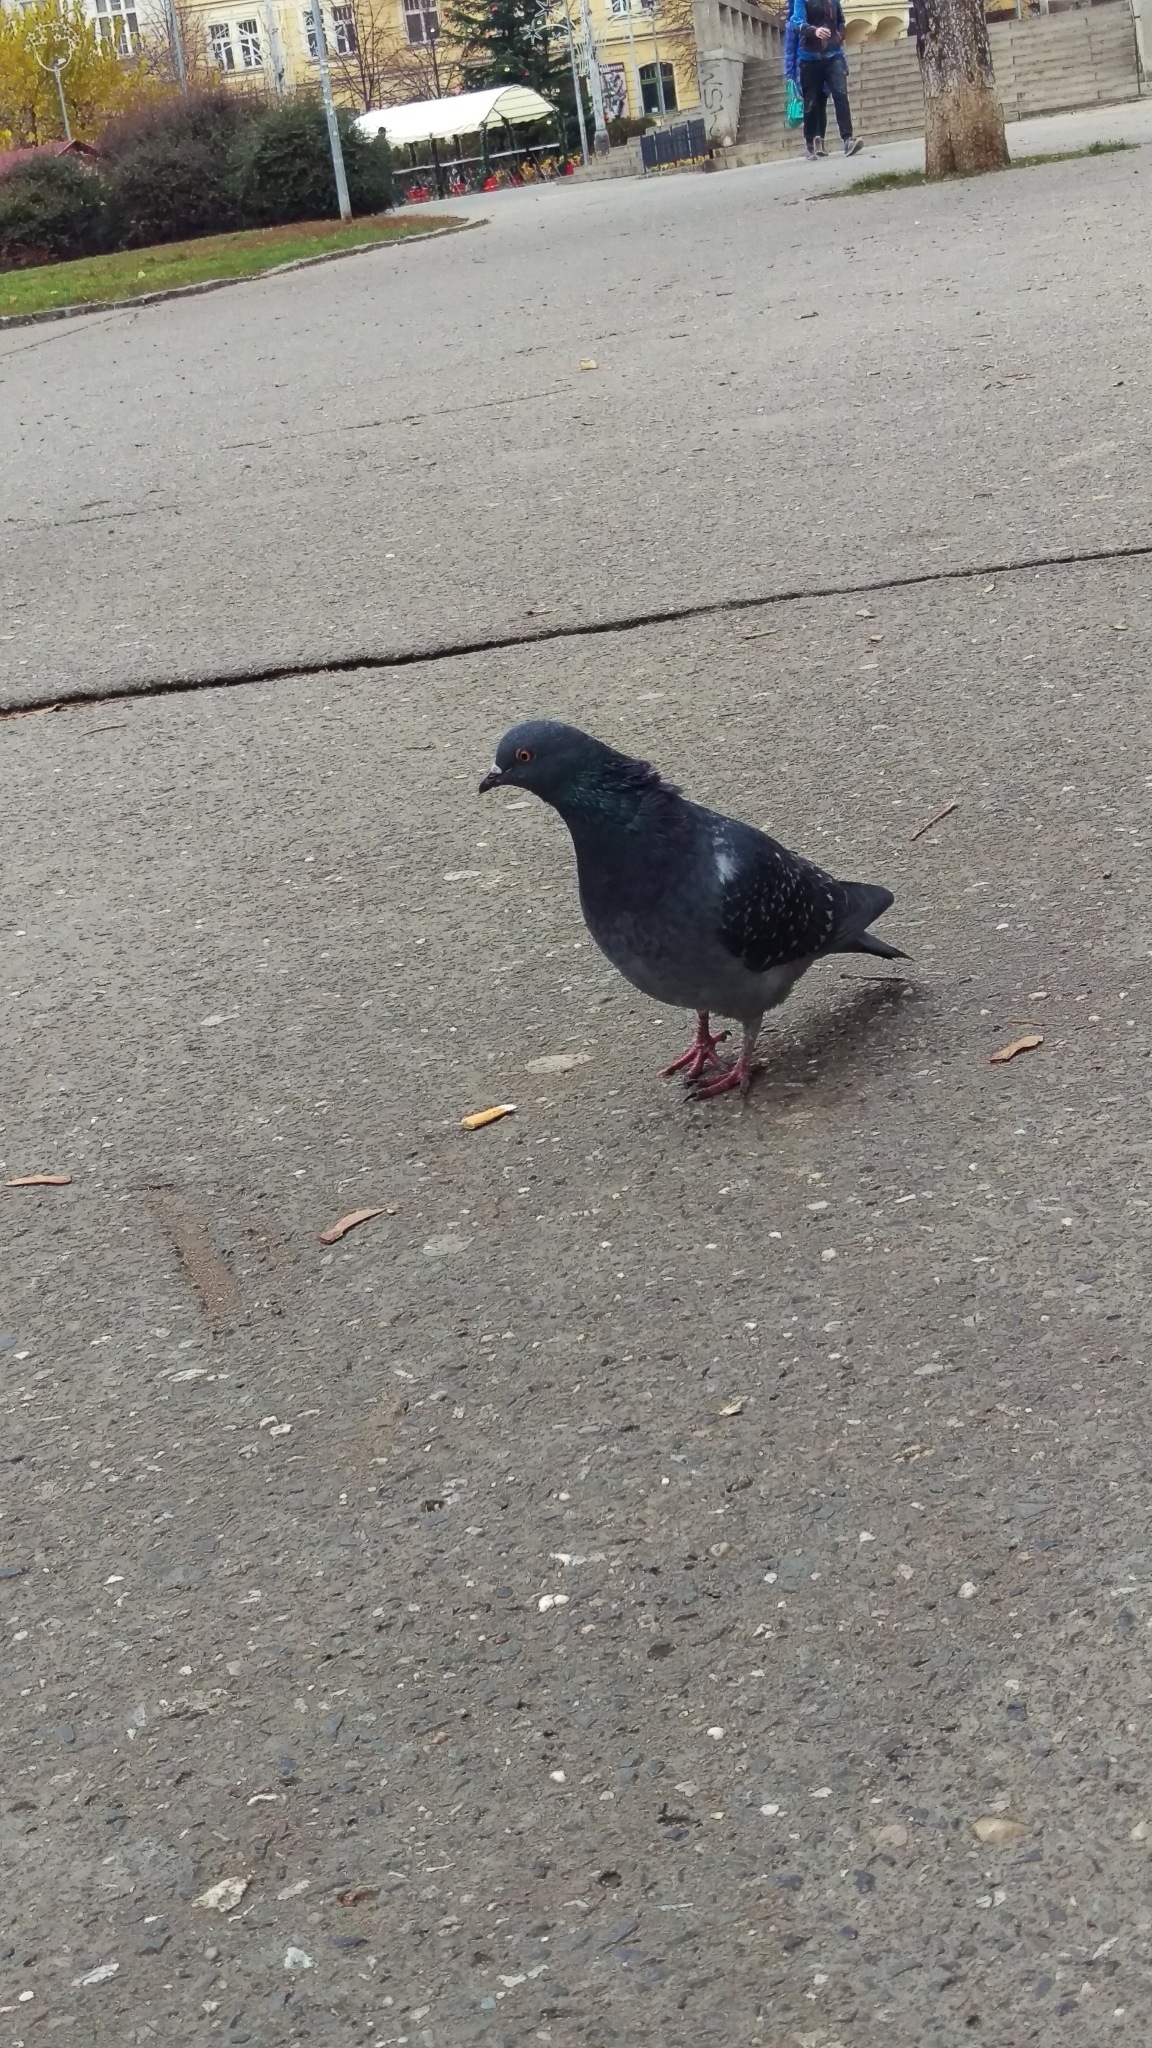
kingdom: Animalia
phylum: Chordata
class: Aves
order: Columbiformes
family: Columbidae
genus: Columba
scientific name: Columba livia
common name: Rock pigeon
